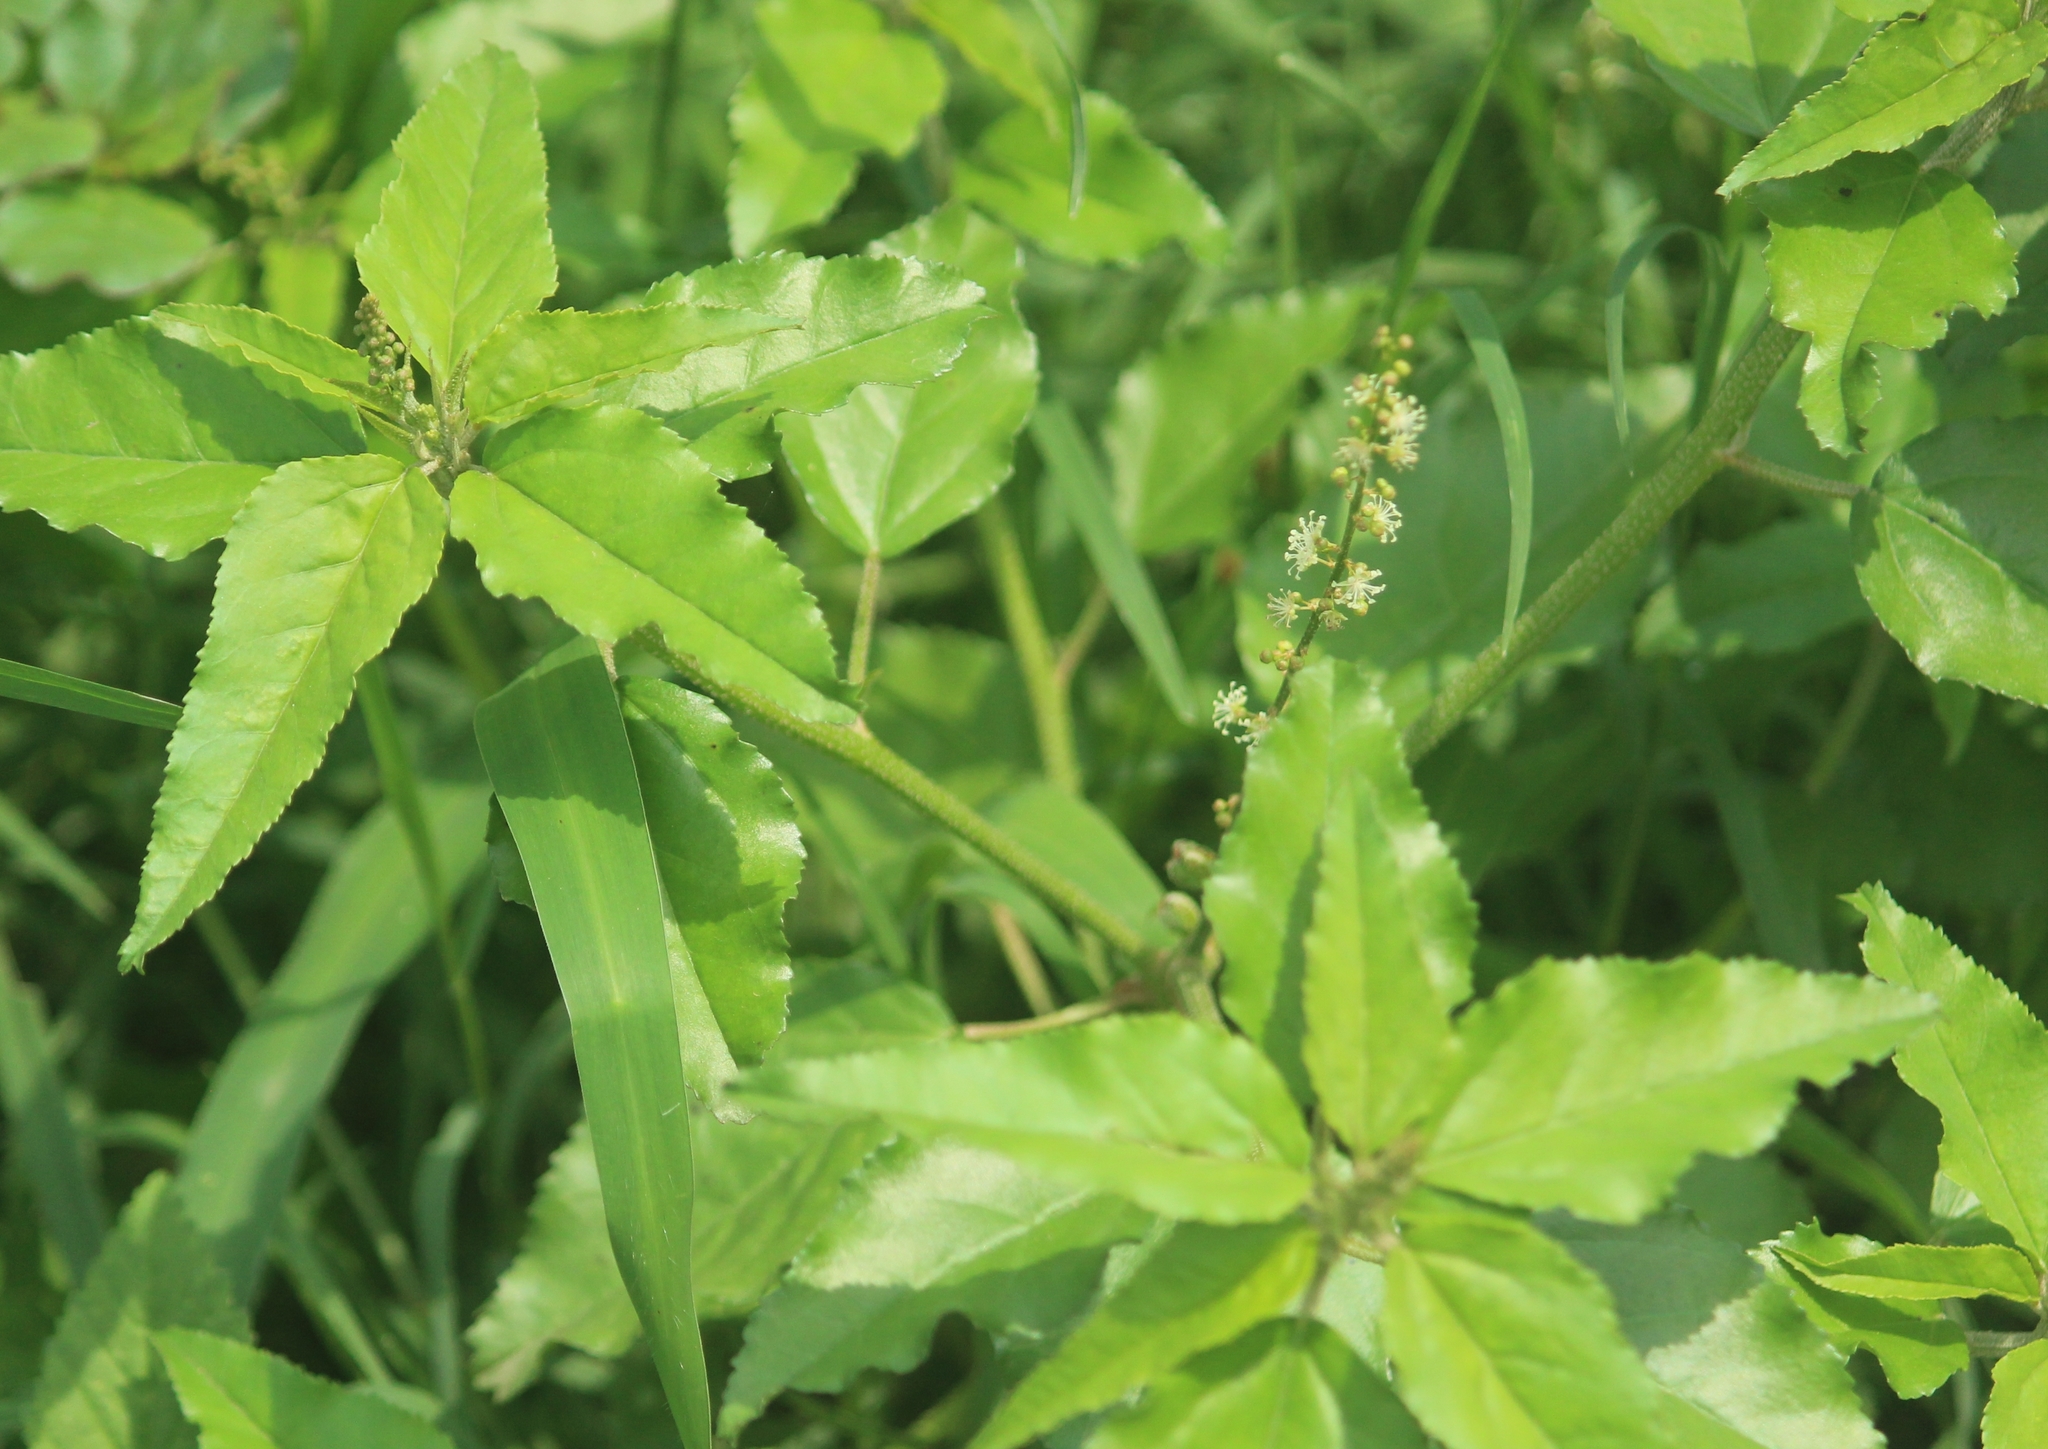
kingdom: Plantae
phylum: Tracheophyta
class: Magnoliopsida
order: Malpighiales
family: Euphorbiaceae
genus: Croton
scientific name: Croton bonplandianus
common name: Bonpland's croton
